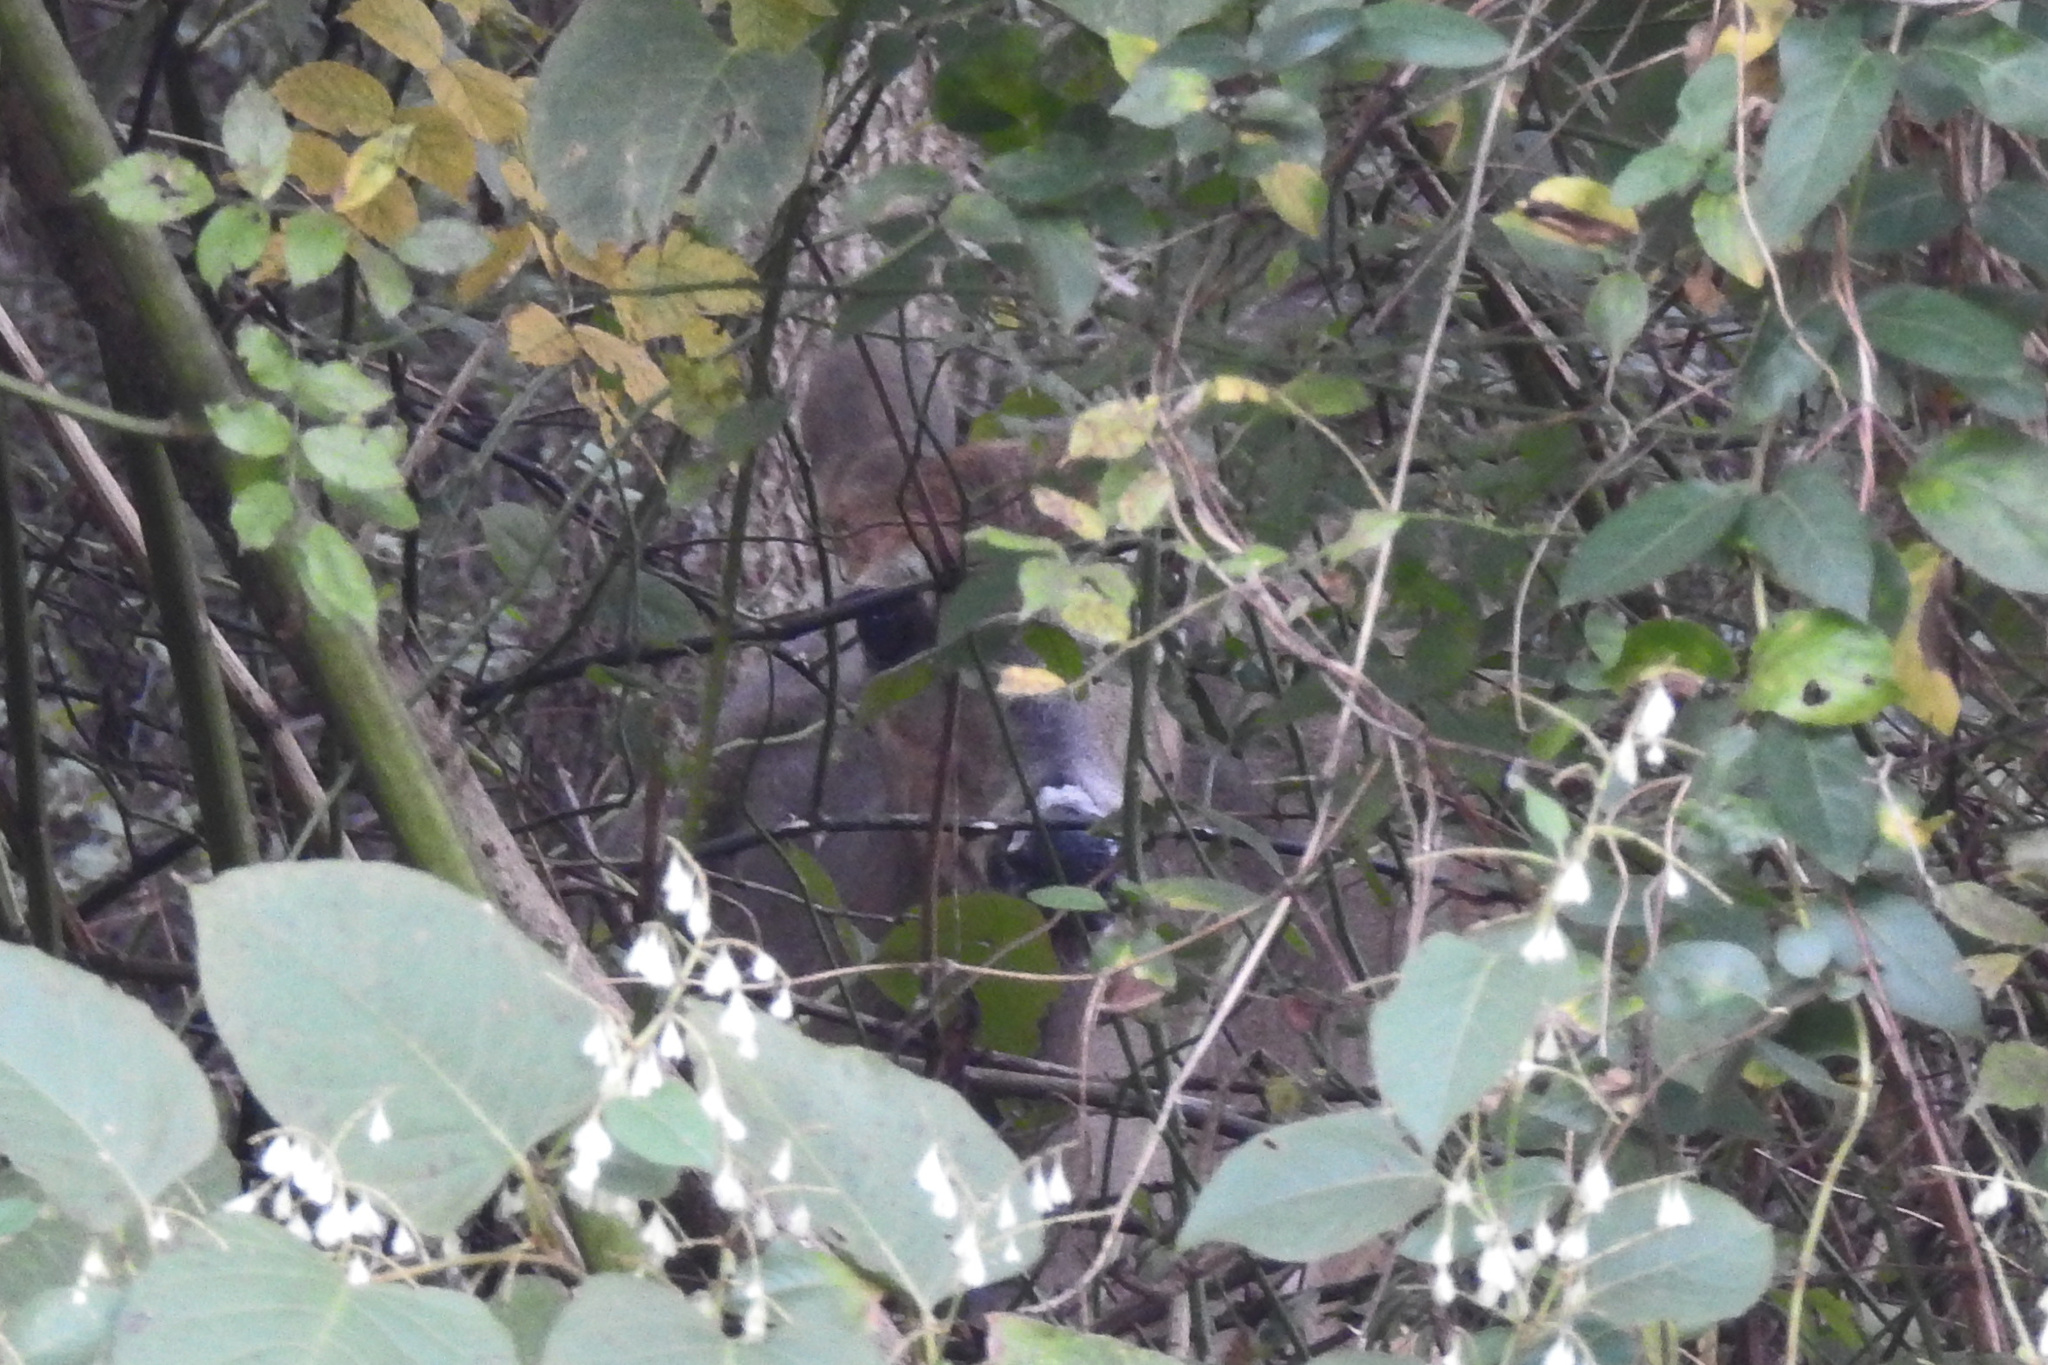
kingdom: Animalia
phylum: Chordata
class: Mammalia
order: Artiodactyla
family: Cervidae
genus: Odocoileus
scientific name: Odocoileus virginianus
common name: White-tailed deer
